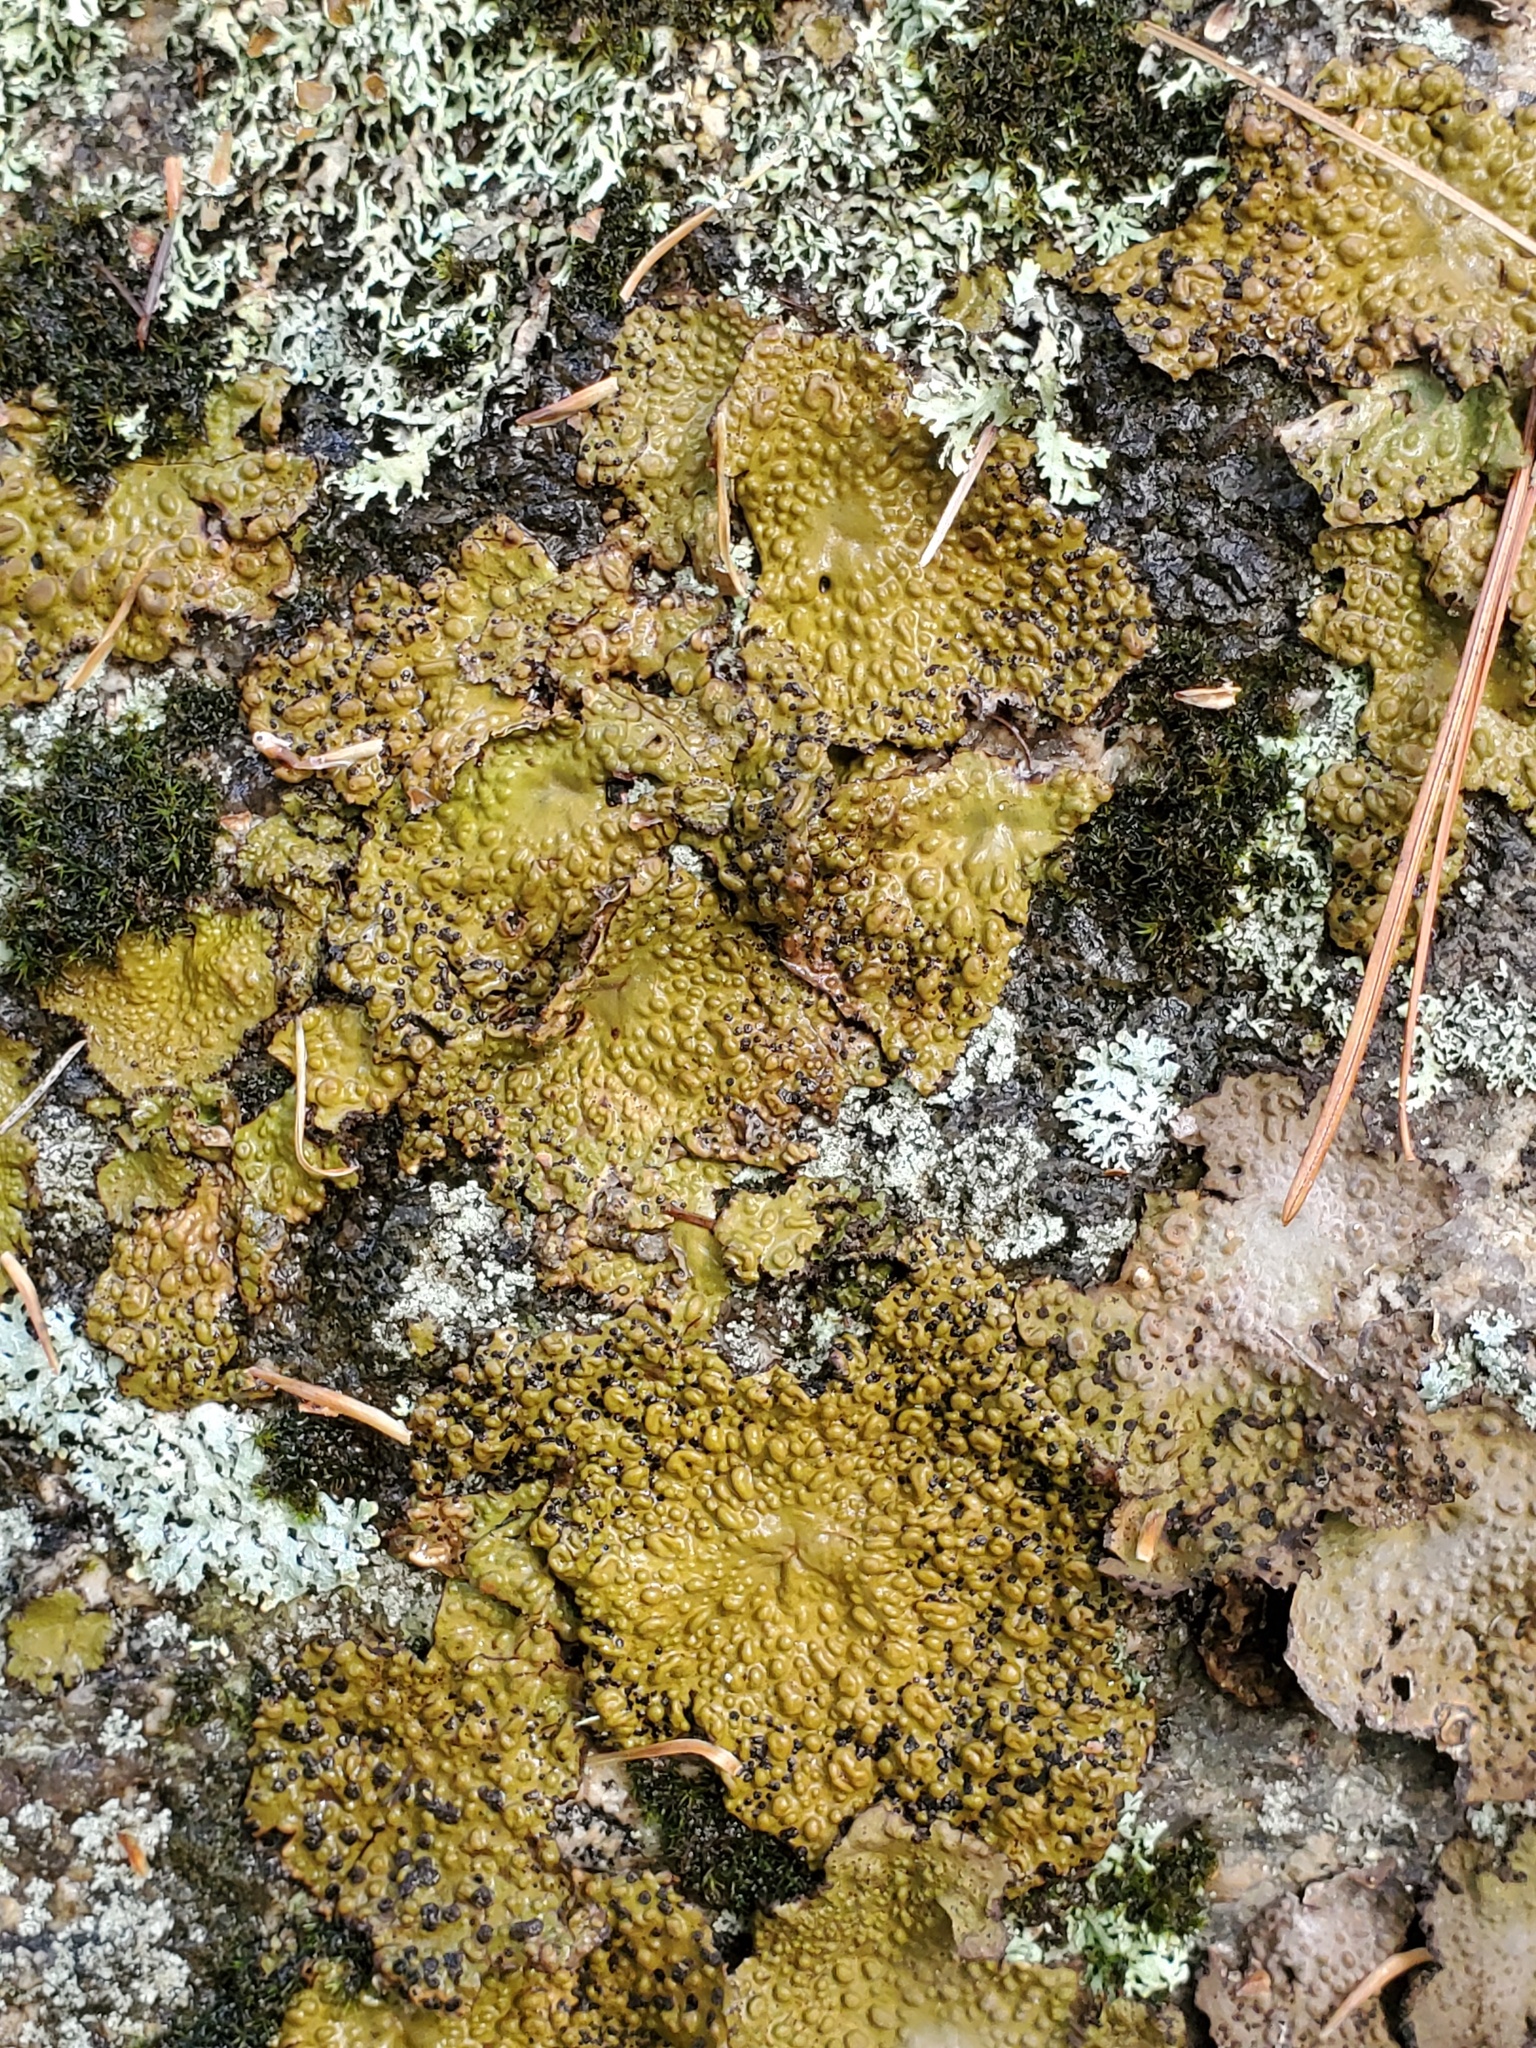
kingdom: Fungi
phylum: Ascomycota
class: Lecanoromycetes
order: Umbilicariales
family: Umbilicariaceae
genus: Lasallia
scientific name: Lasallia papulosa
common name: Common toadskin lichen
